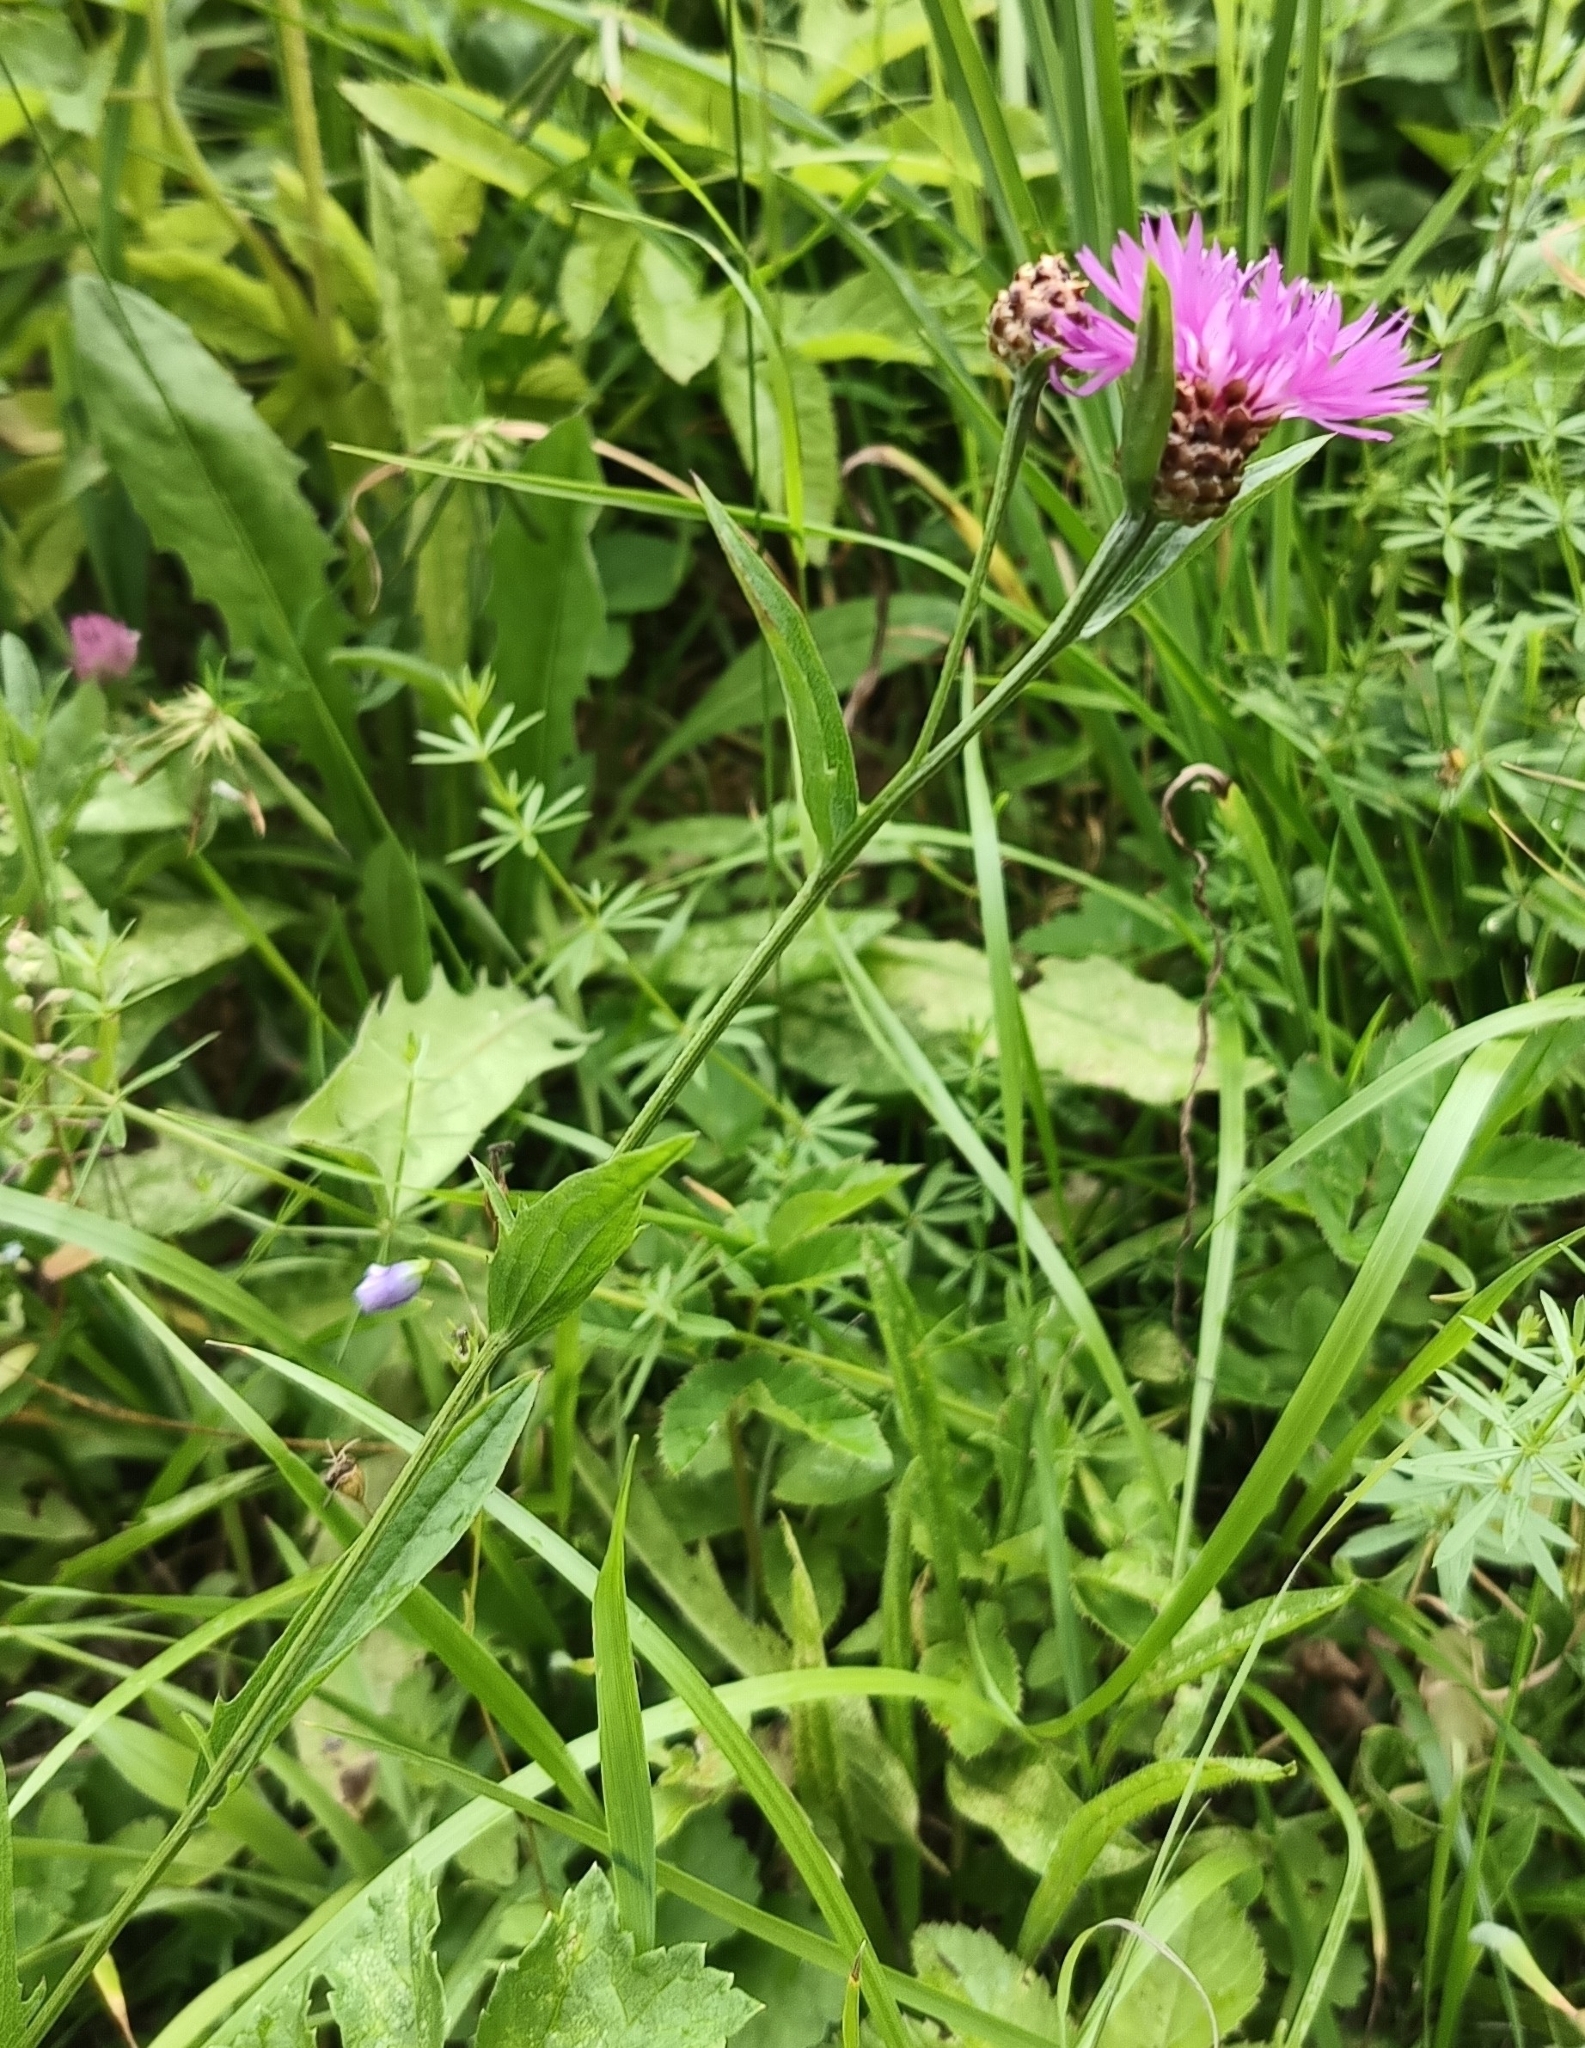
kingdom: Plantae
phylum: Tracheophyta
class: Magnoliopsida
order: Asterales
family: Asteraceae
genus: Centaurea
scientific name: Centaurea jacea
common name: Brown knapweed
